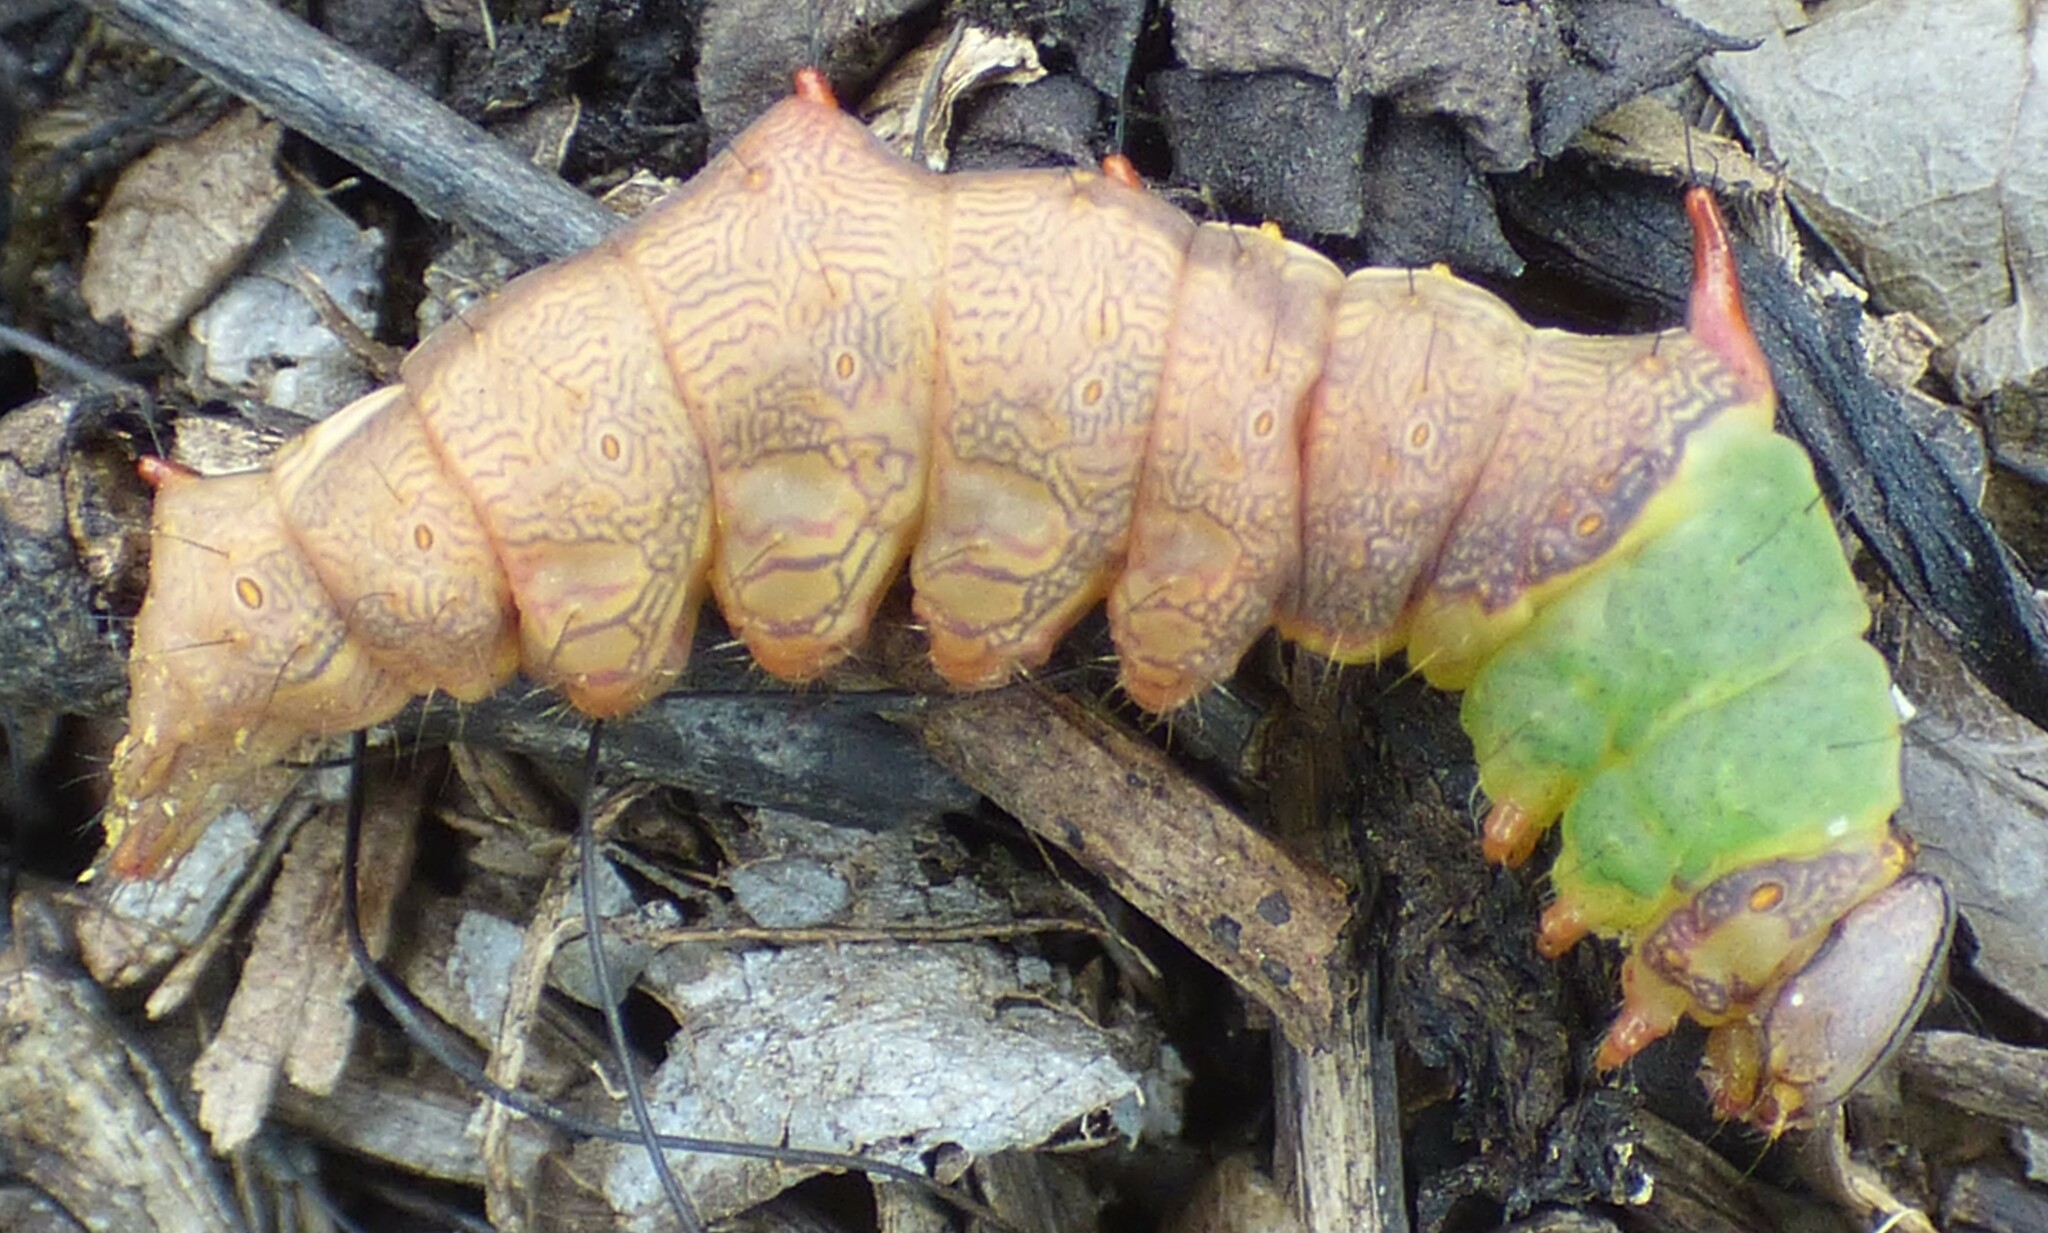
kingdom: Animalia
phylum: Arthropoda
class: Insecta
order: Lepidoptera
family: Notodontidae
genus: Schizura
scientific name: Schizura ipomaeae
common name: Morning-glory prominent
